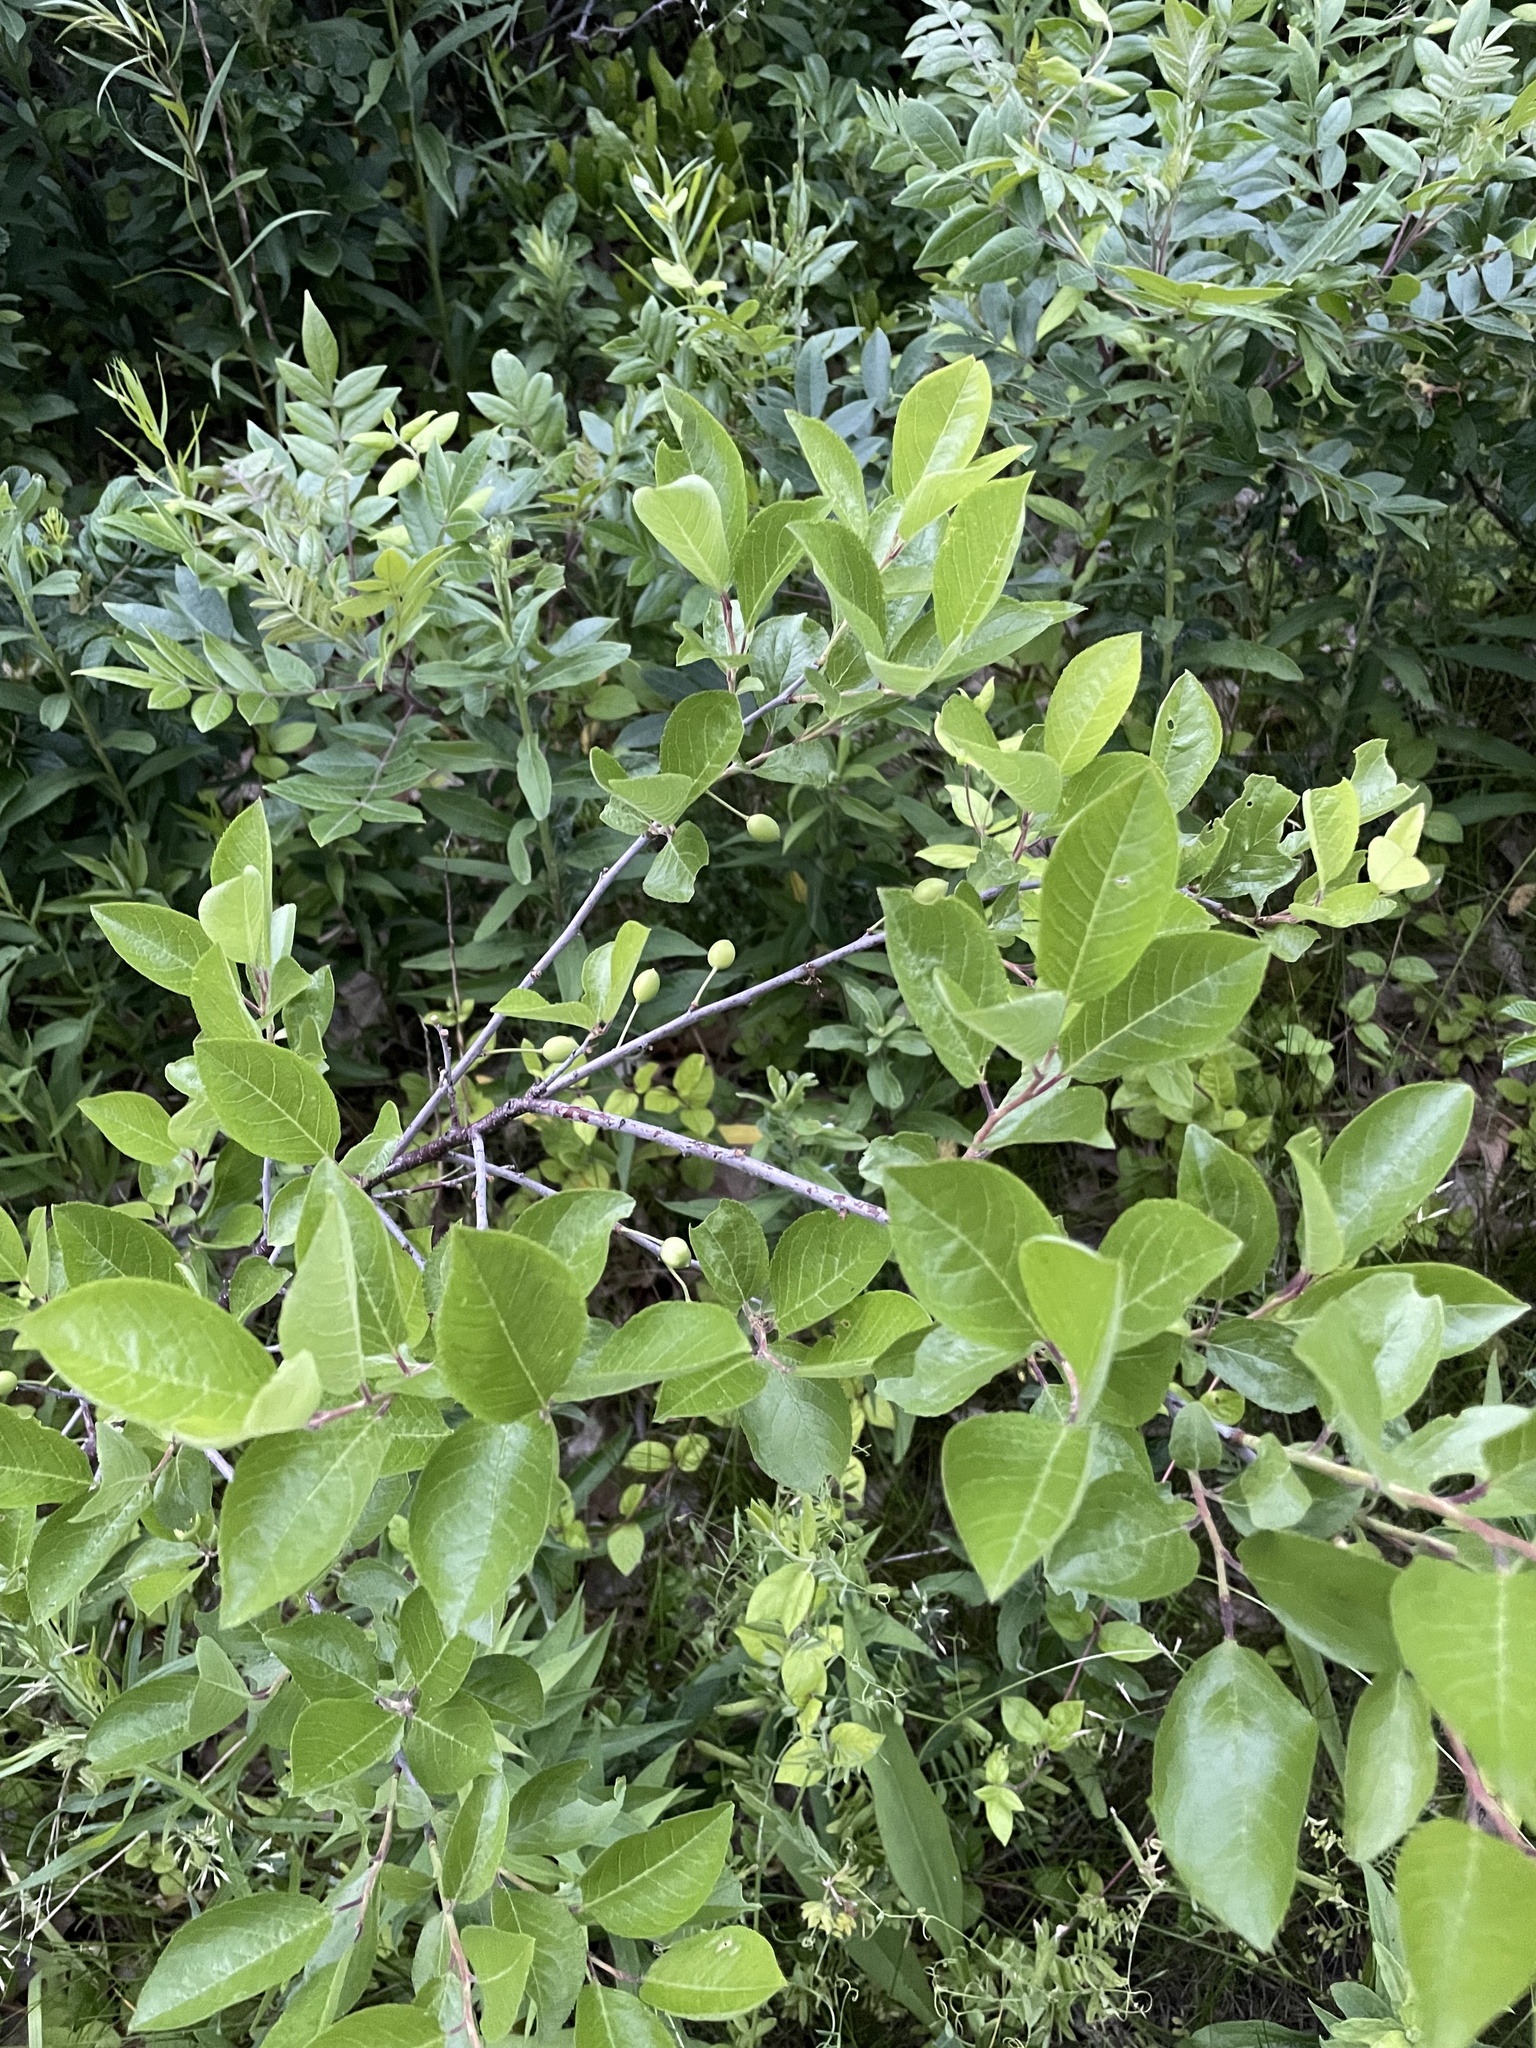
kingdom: Plantae
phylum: Tracheophyta
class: Magnoliopsida
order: Rosales
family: Rosaceae
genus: Prunus
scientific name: Prunus maritima
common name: Beach plum
